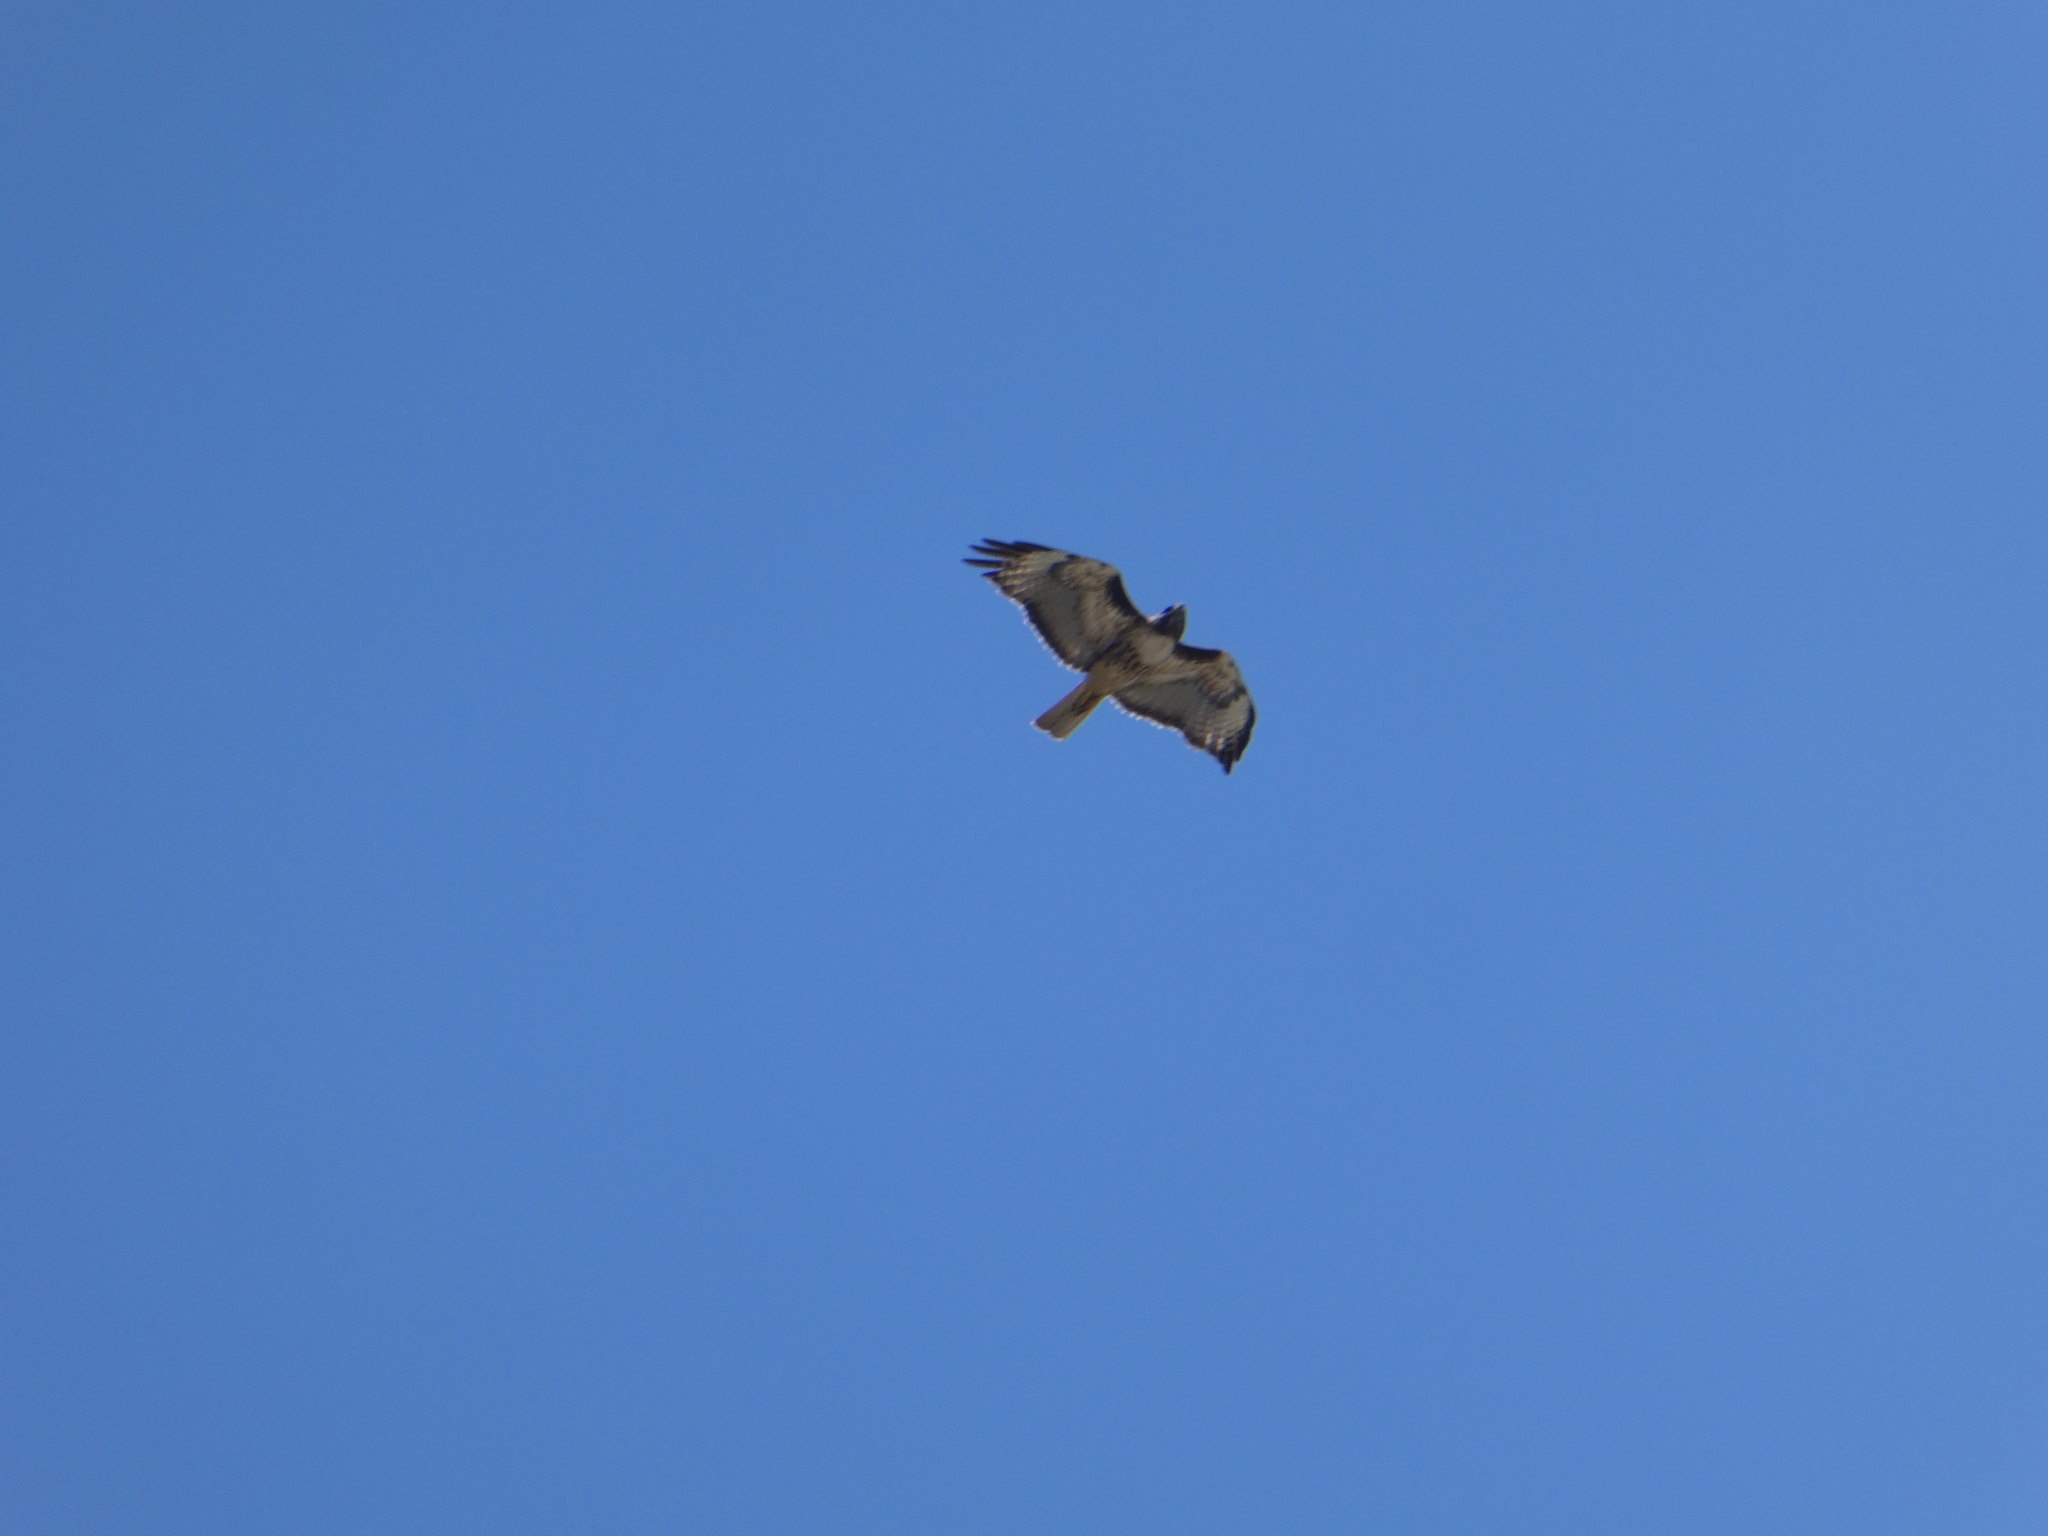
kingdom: Animalia
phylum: Chordata
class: Aves
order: Accipitriformes
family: Accipitridae
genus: Buteo
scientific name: Buteo jamaicensis
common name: Red-tailed hawk
